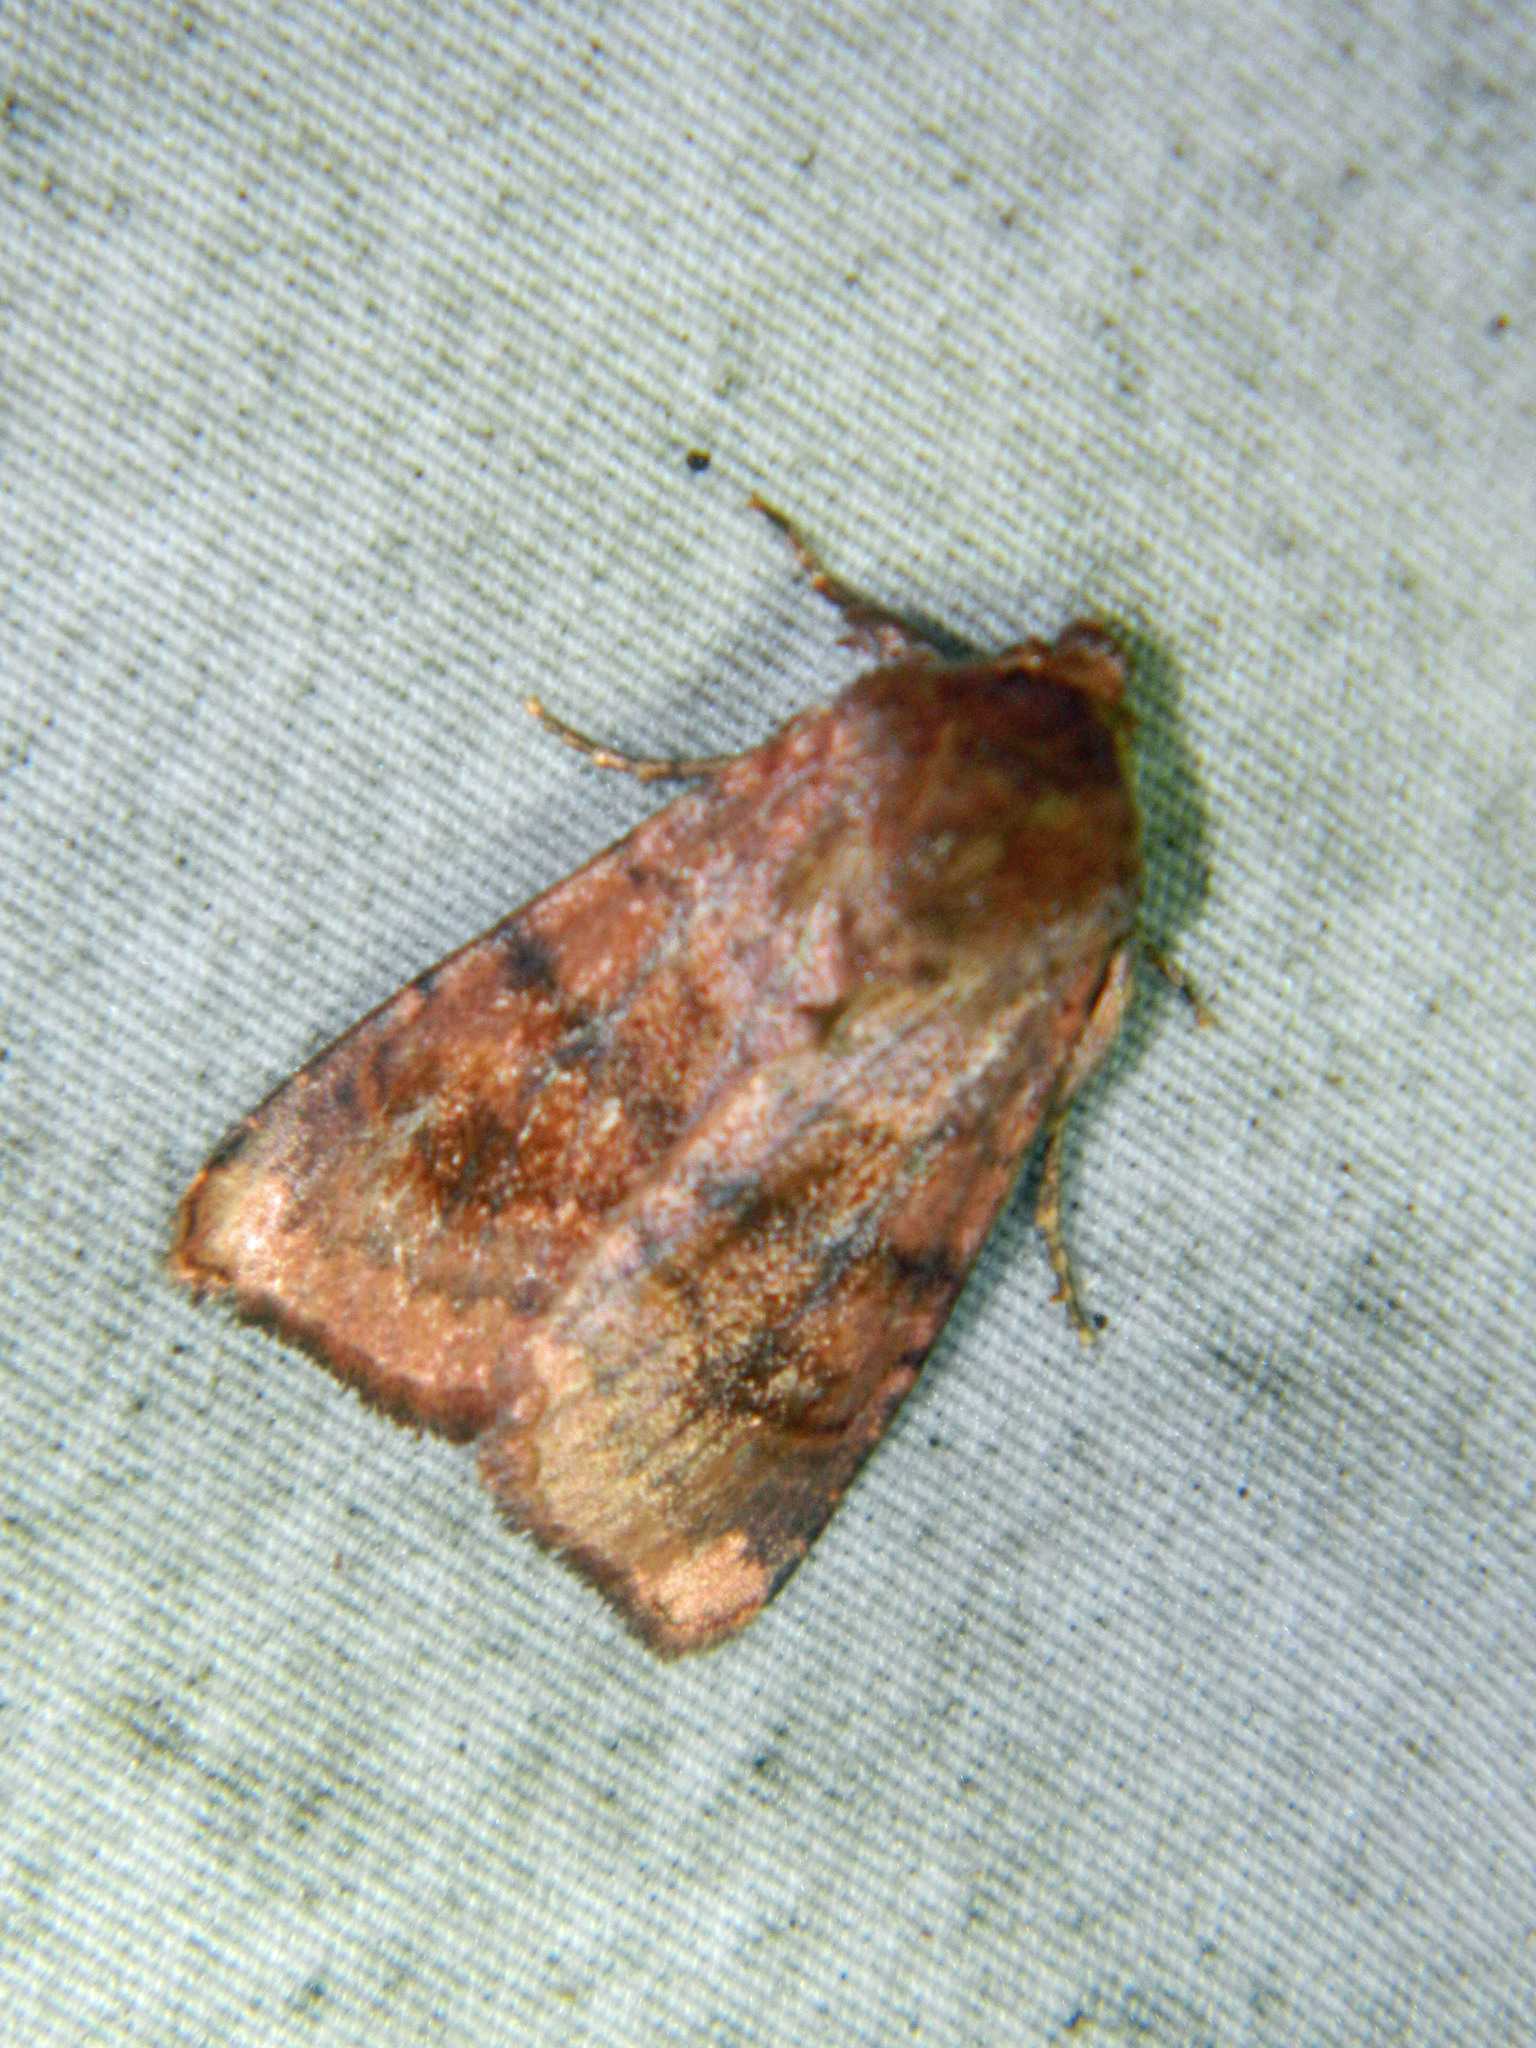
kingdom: Animalia
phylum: Arthropoda
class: Insecta
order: Lepidoptera
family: Noctuidae
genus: Nephelodes
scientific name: Nephelodes minians
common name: Bronzed cutworm
